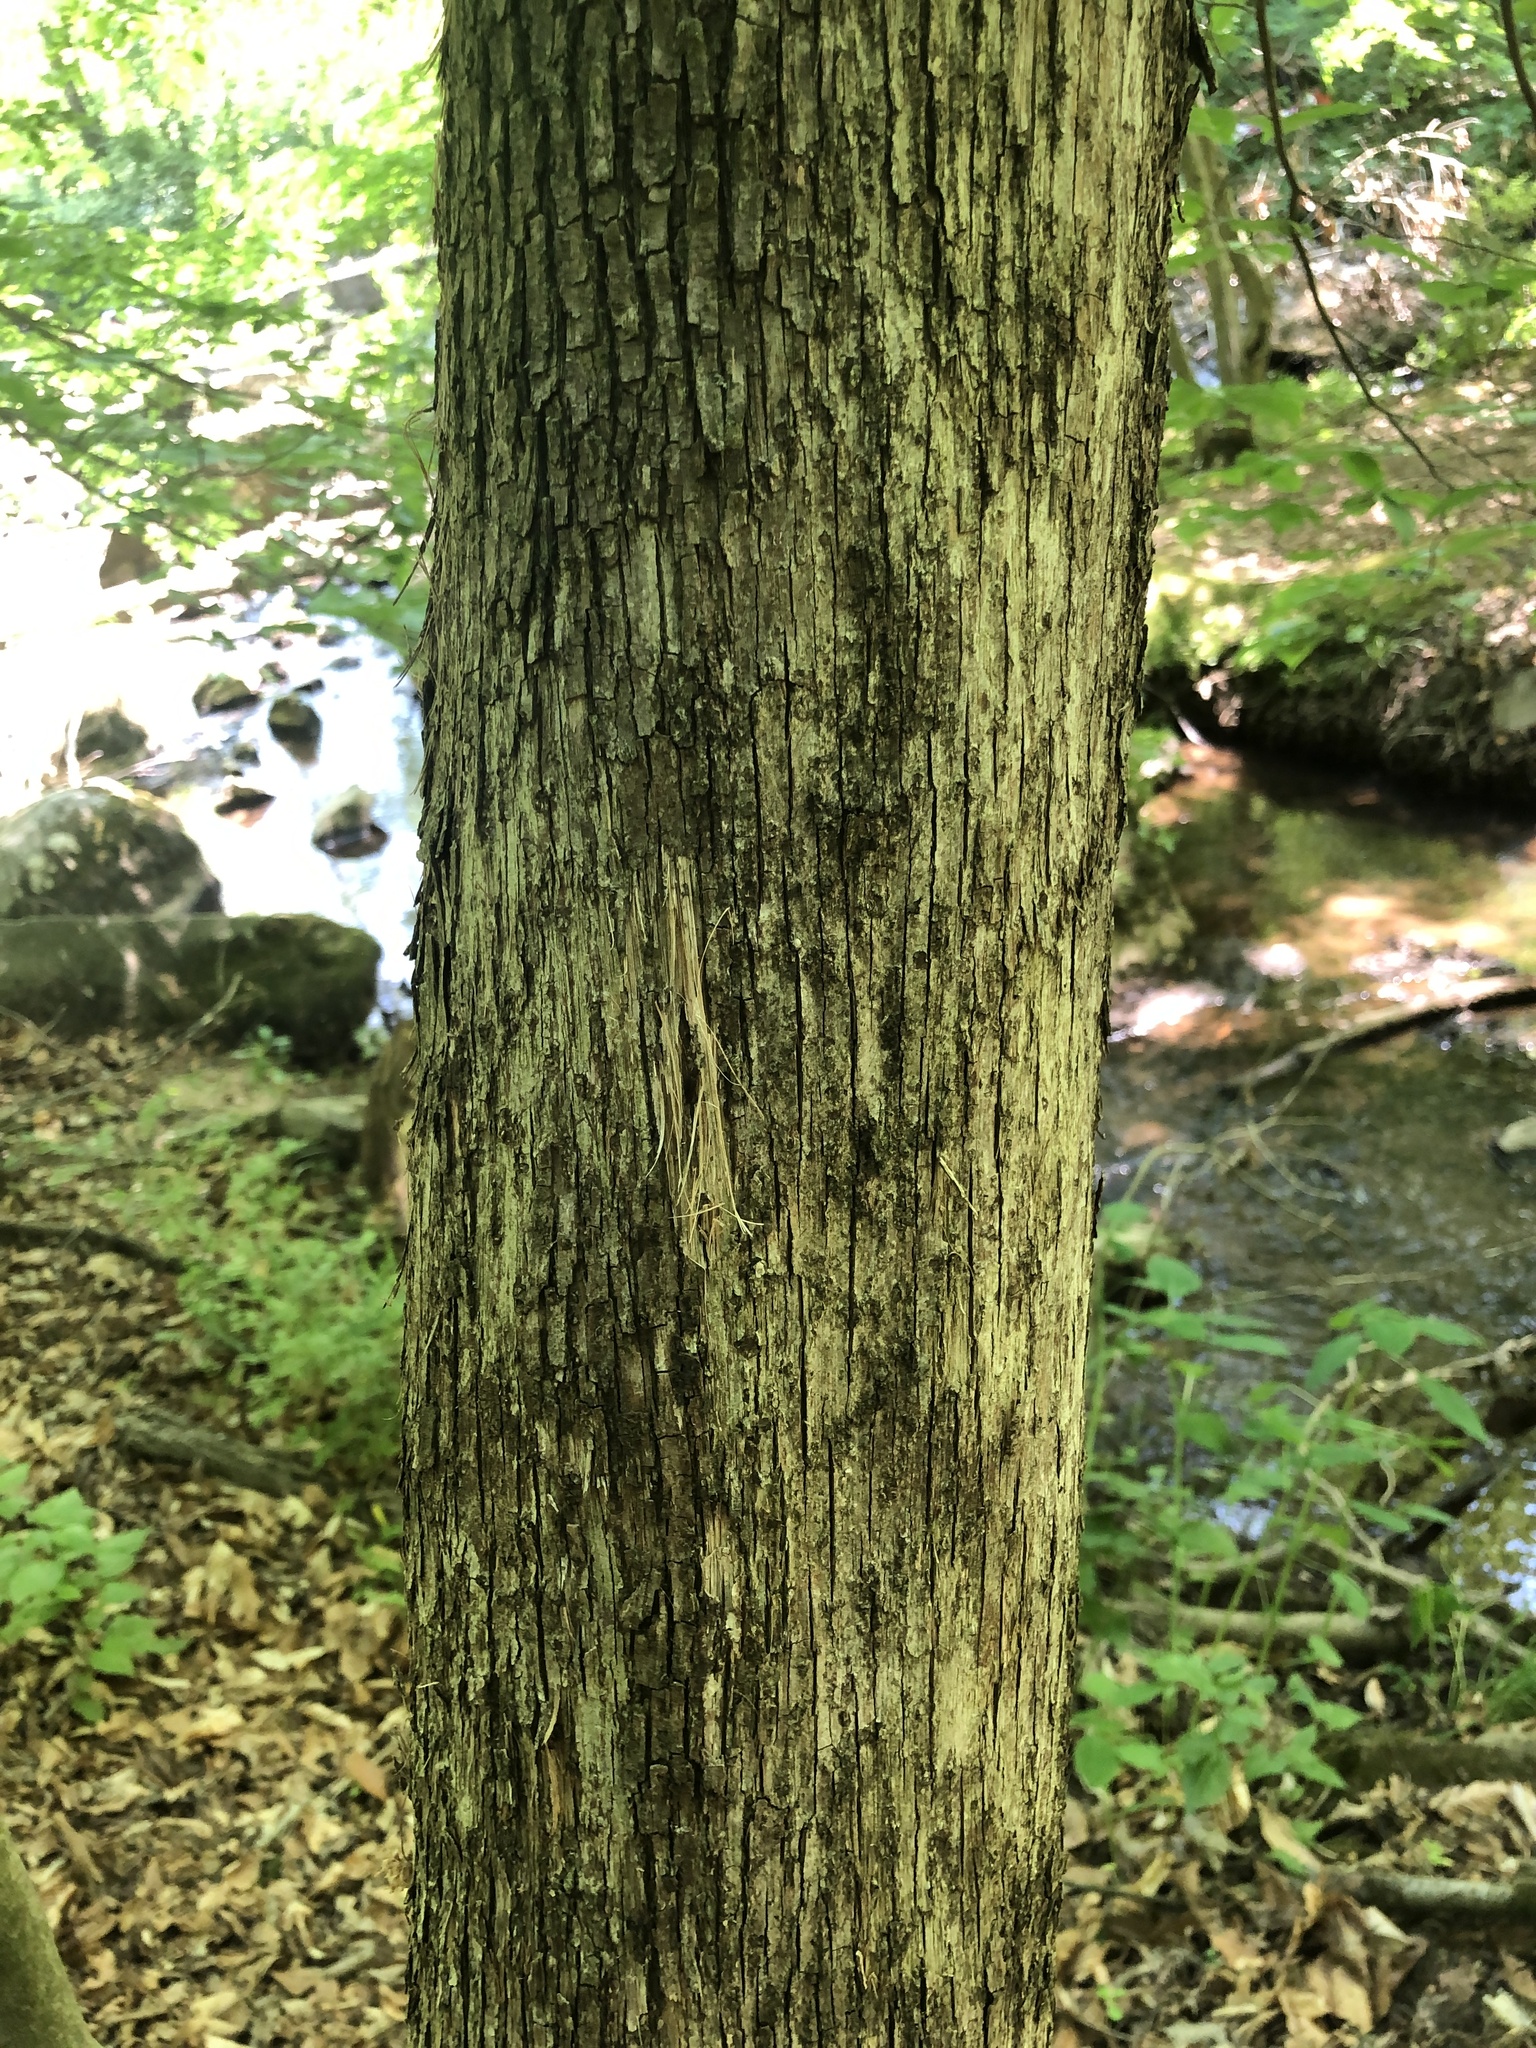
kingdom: Plantae
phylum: Tracheophyta
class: Magnoliopsida
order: Fagales
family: Betulaceae
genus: Ostrya
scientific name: Ostrya virginiana
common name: Ironwood
